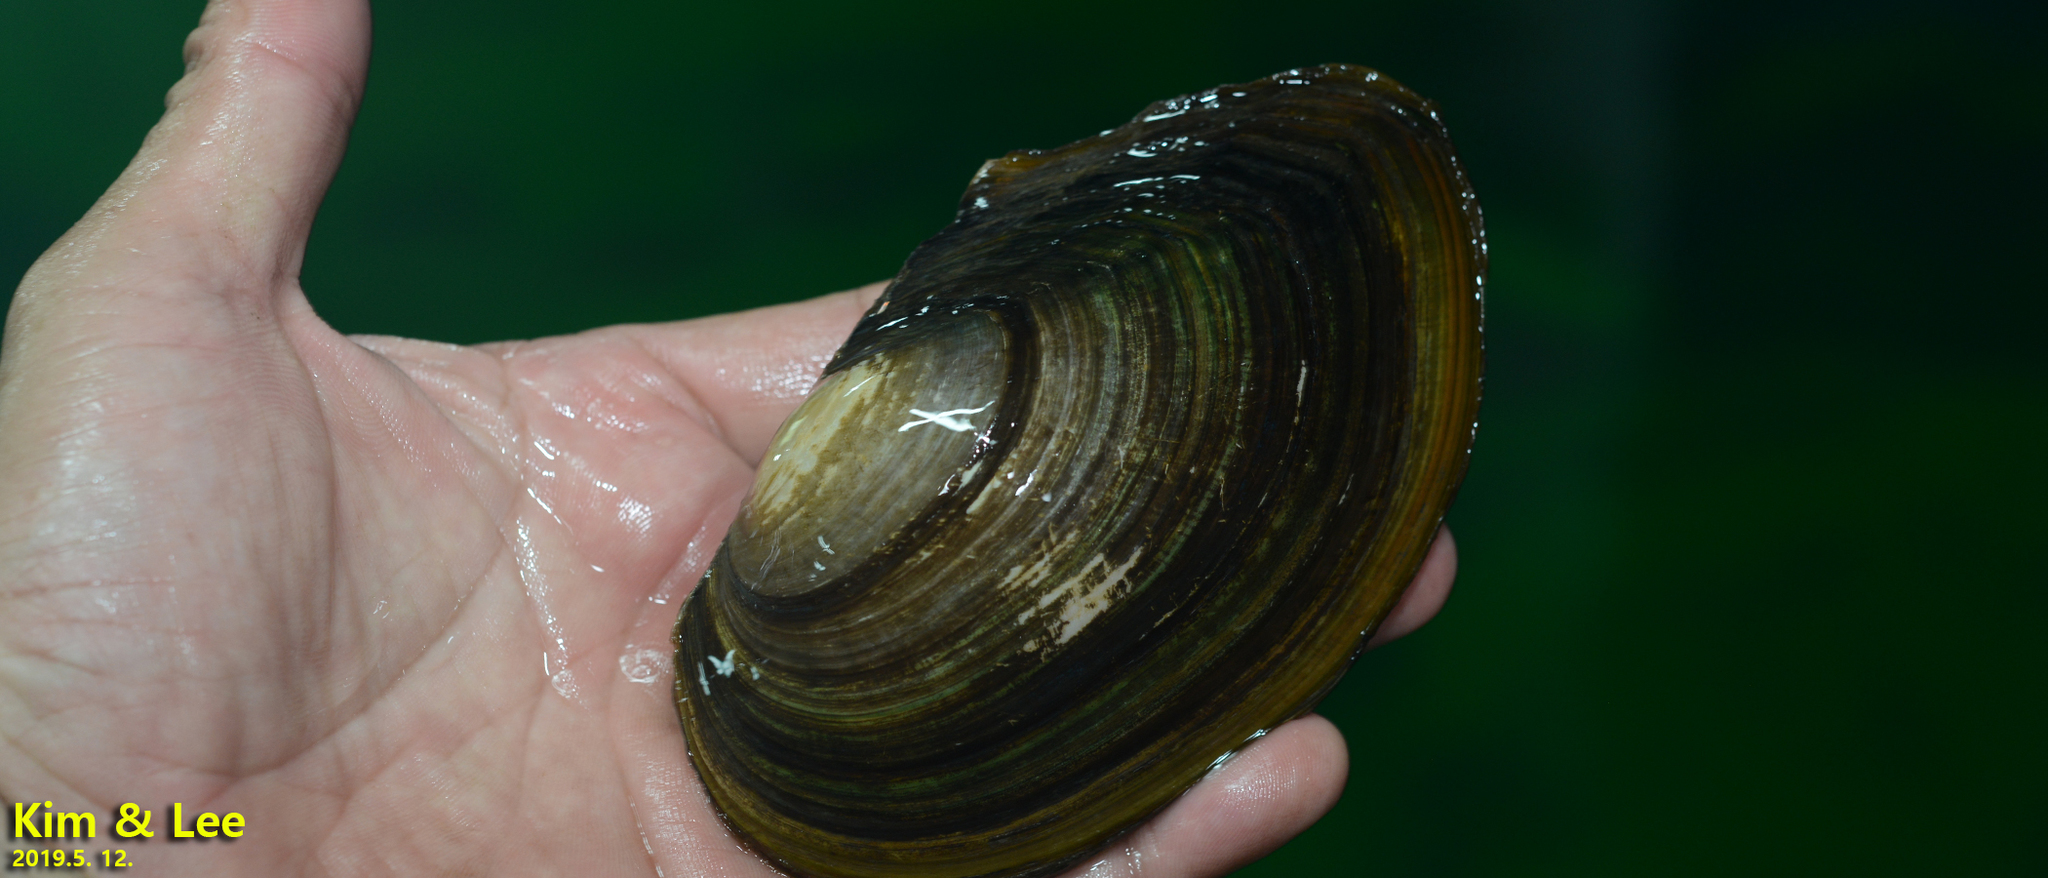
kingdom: Animalia
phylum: Mollusca
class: Bivalvia
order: Unionida
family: Unionidae
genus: Sinanodonta
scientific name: Sinanodonta lauta
